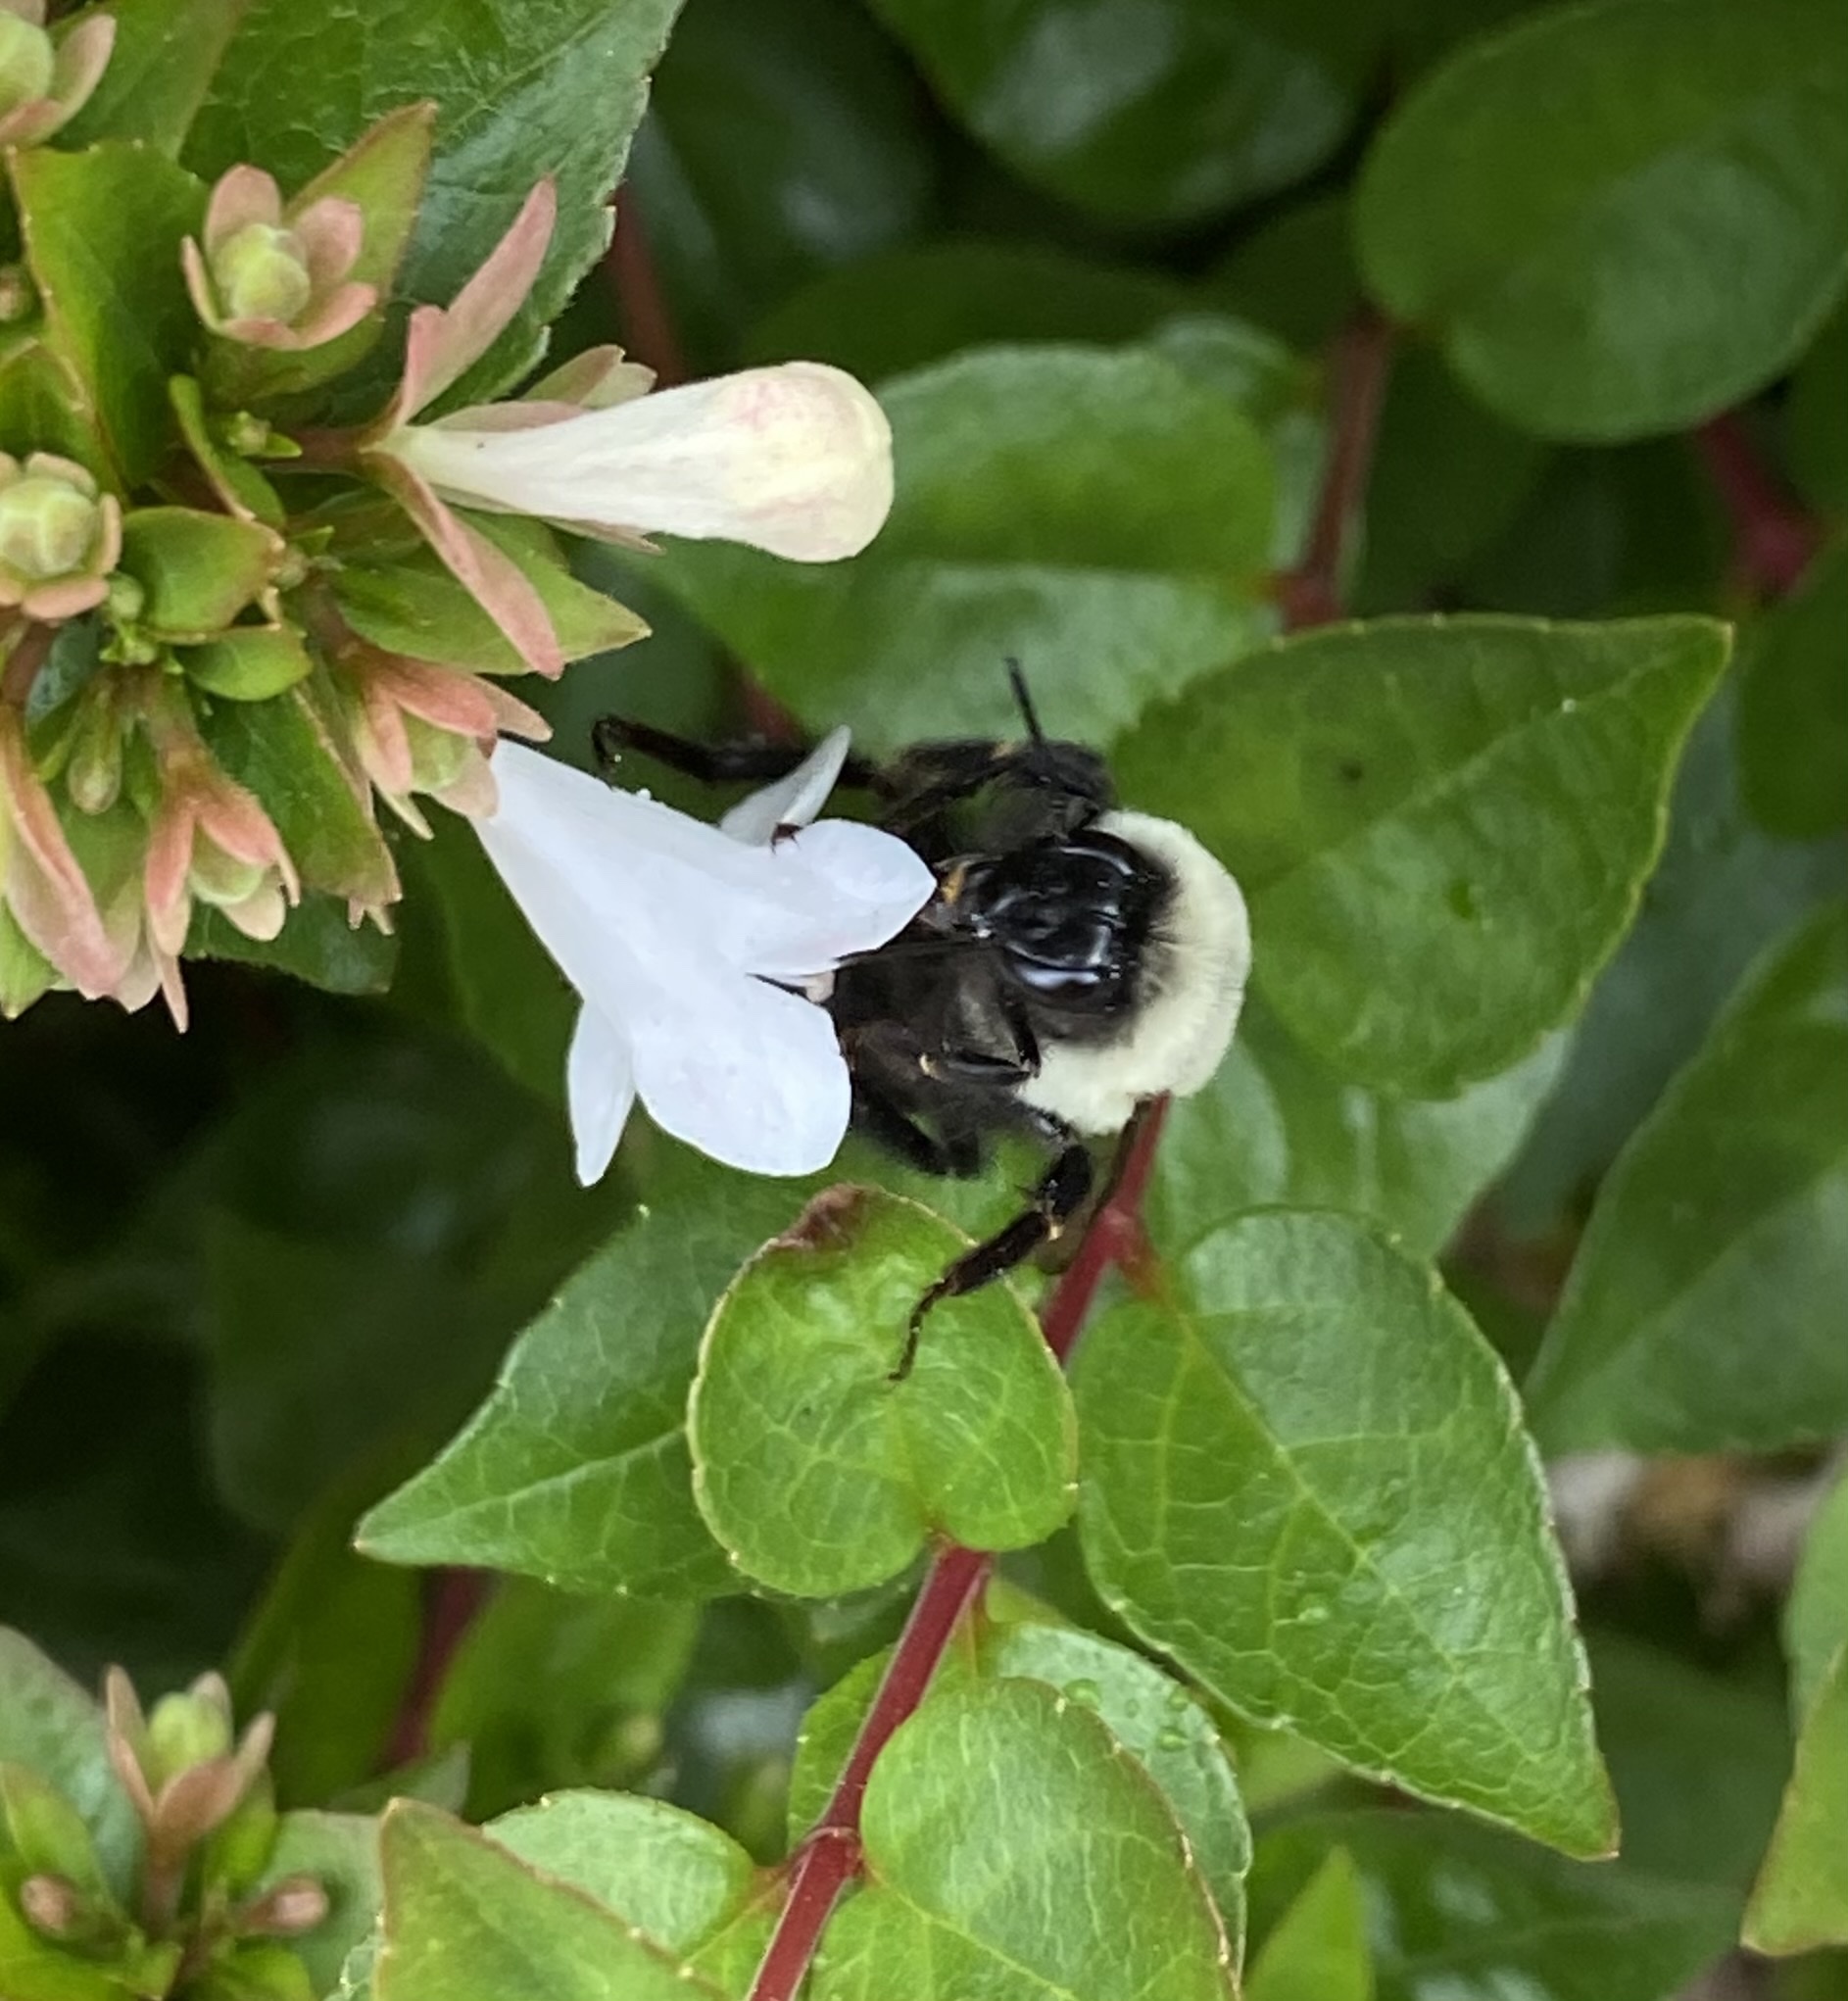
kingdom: Animalia
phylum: Arthropoda
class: Insecta
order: Hymenoptera
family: Apidae
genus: Bombus
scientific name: Bombus impatiens
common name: Common eastern bumble bee
